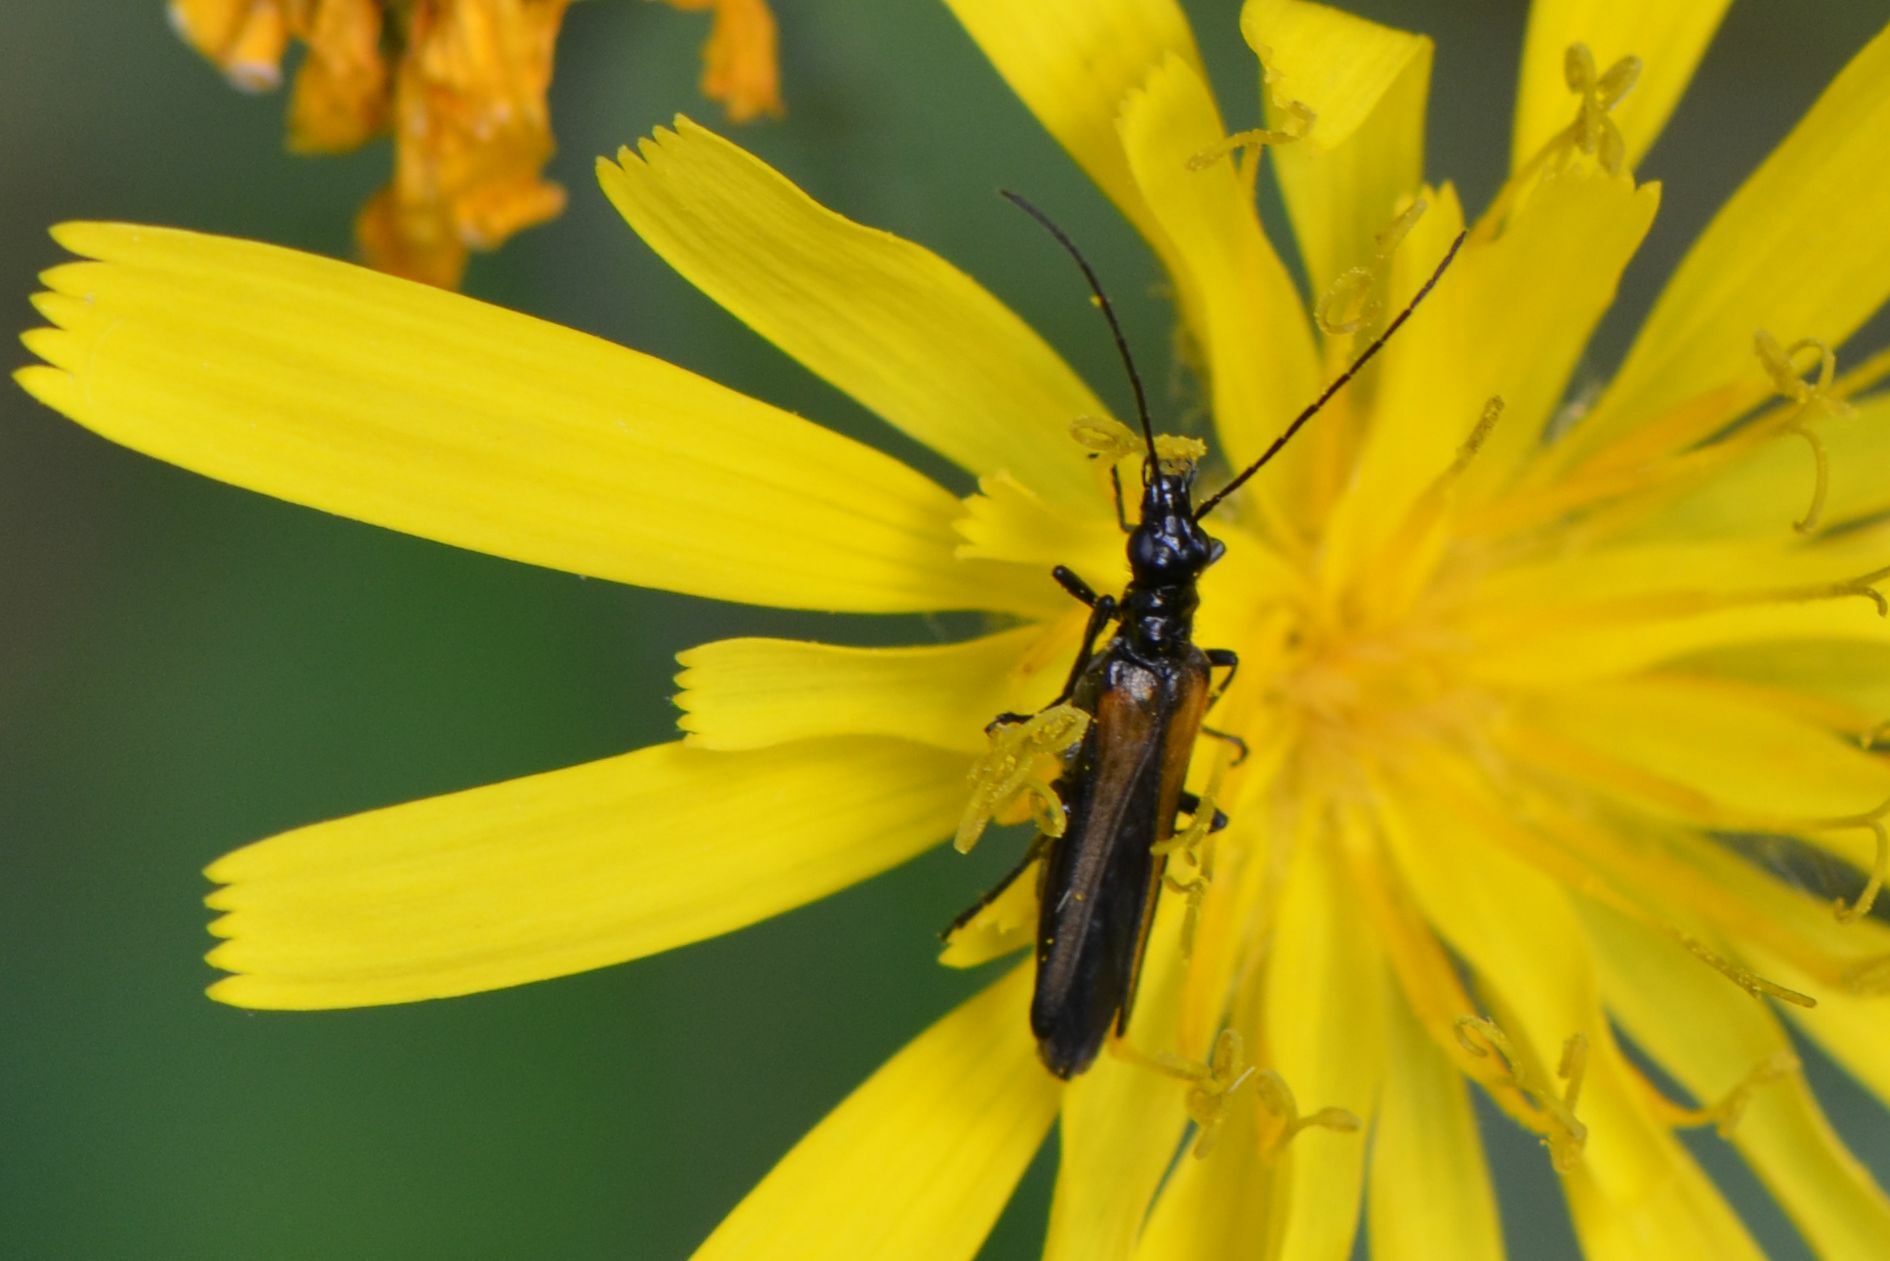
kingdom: Animalia
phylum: Arthropoda
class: Insecta
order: Coleoptera
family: Oedemeridae
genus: Oedemera
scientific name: Oedemera pthysica
